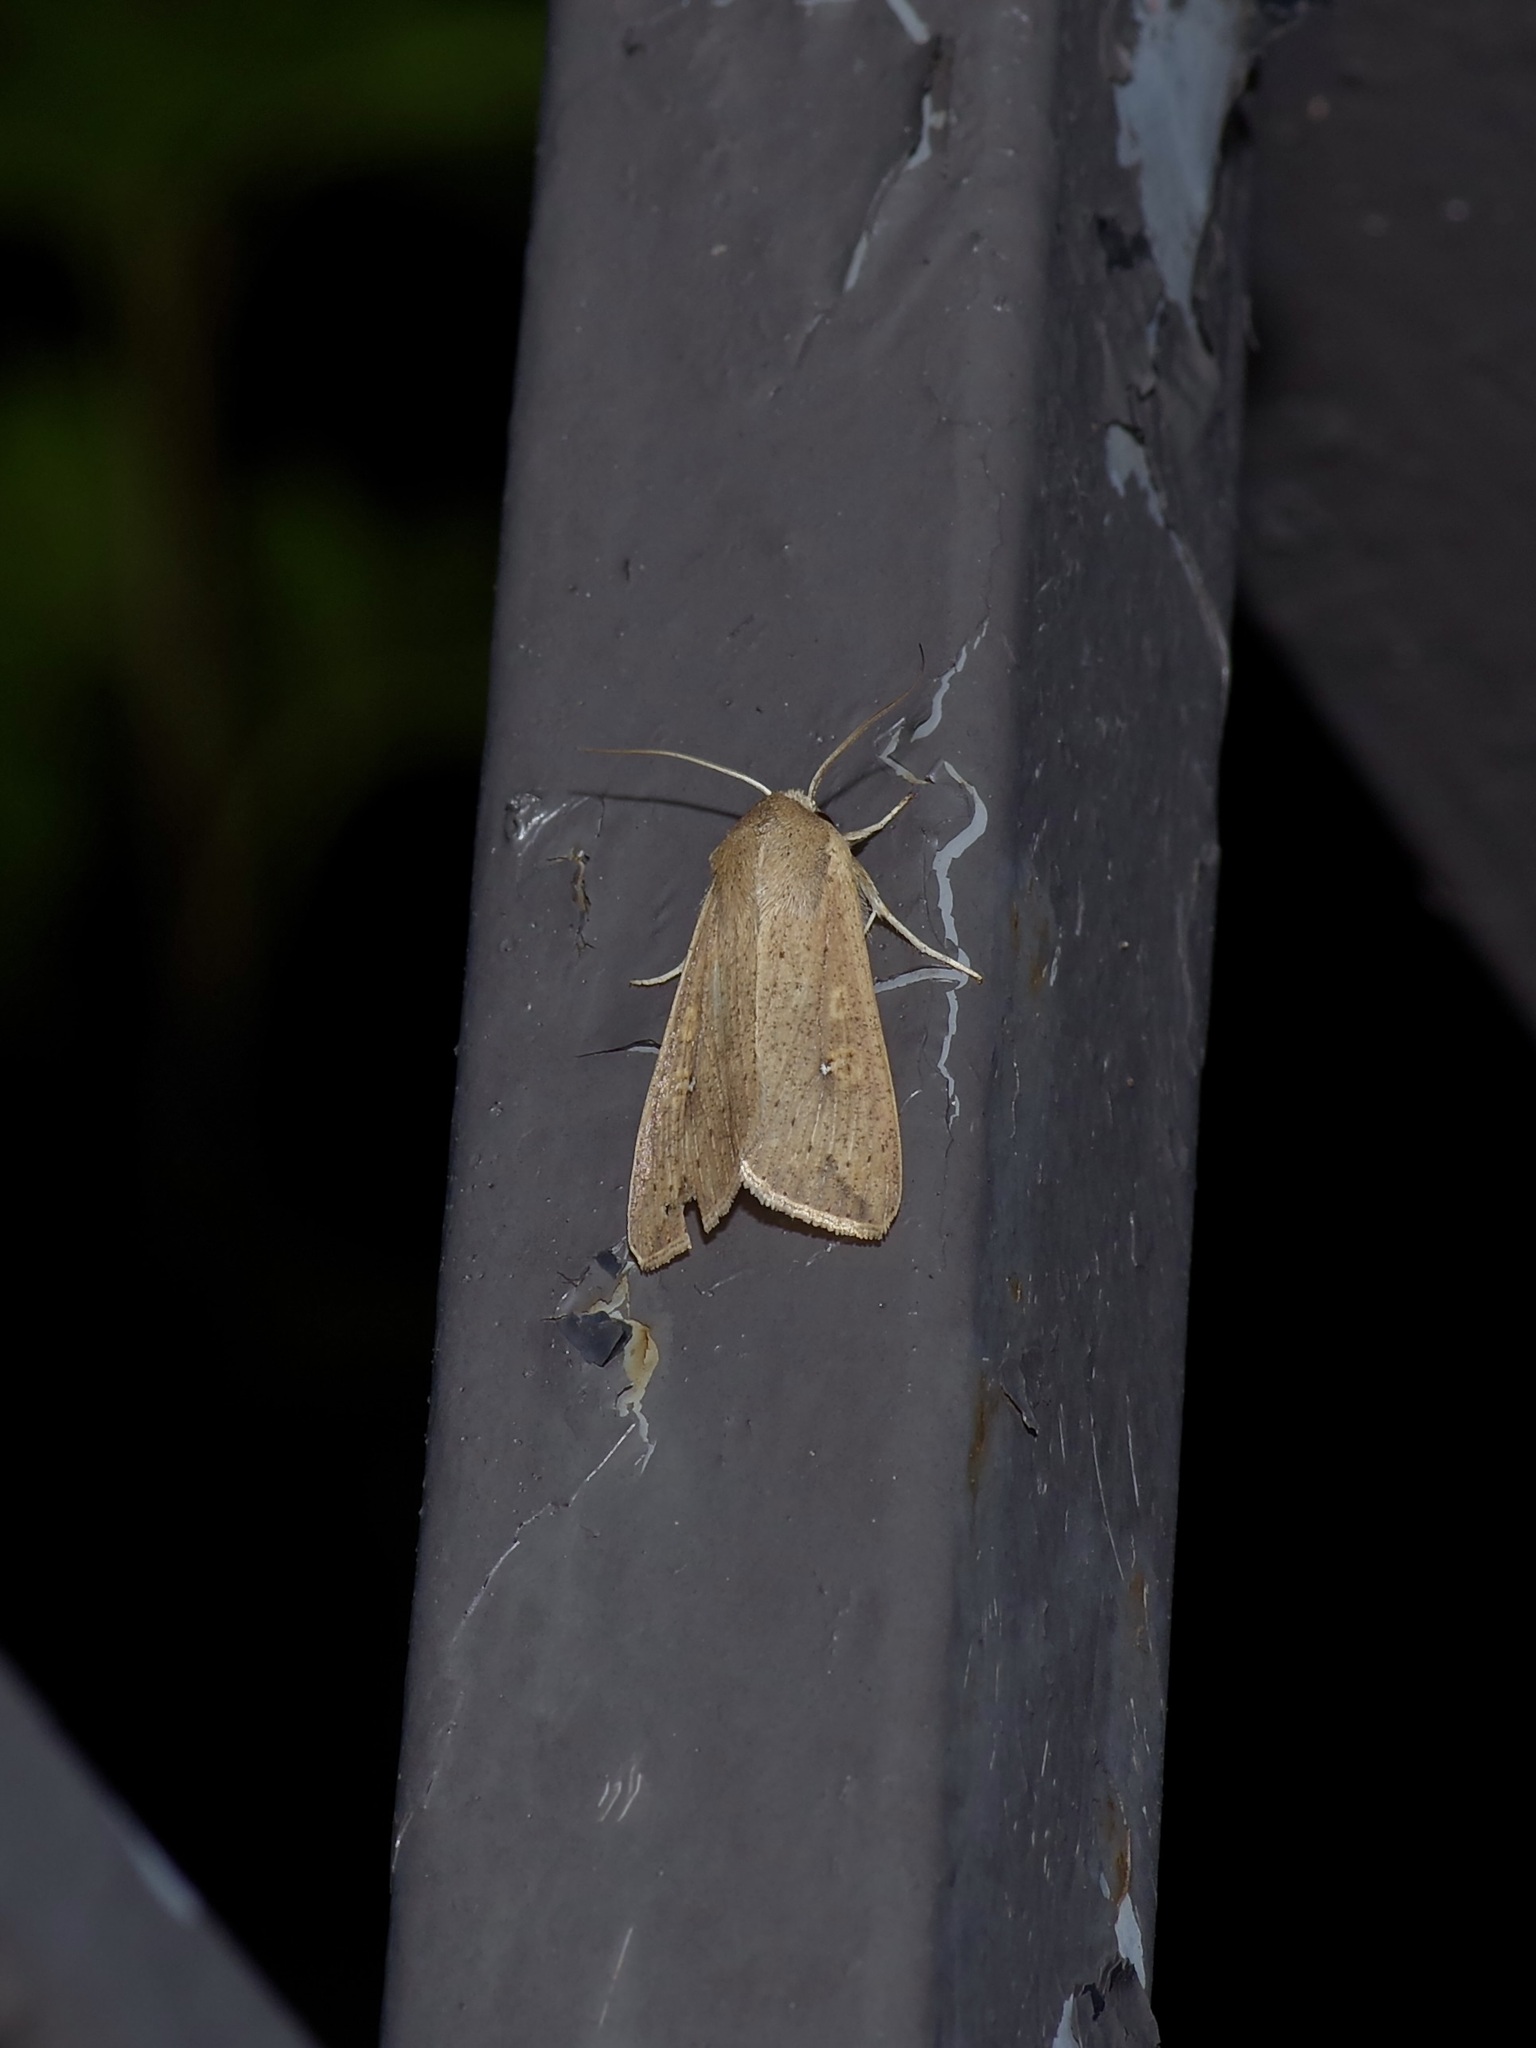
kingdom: Animalia
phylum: Arthropoda
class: Insecta
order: Lepidoptera
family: Noctuidae
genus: Mythimna
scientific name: Mythimna unipuncta
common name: White-speck
